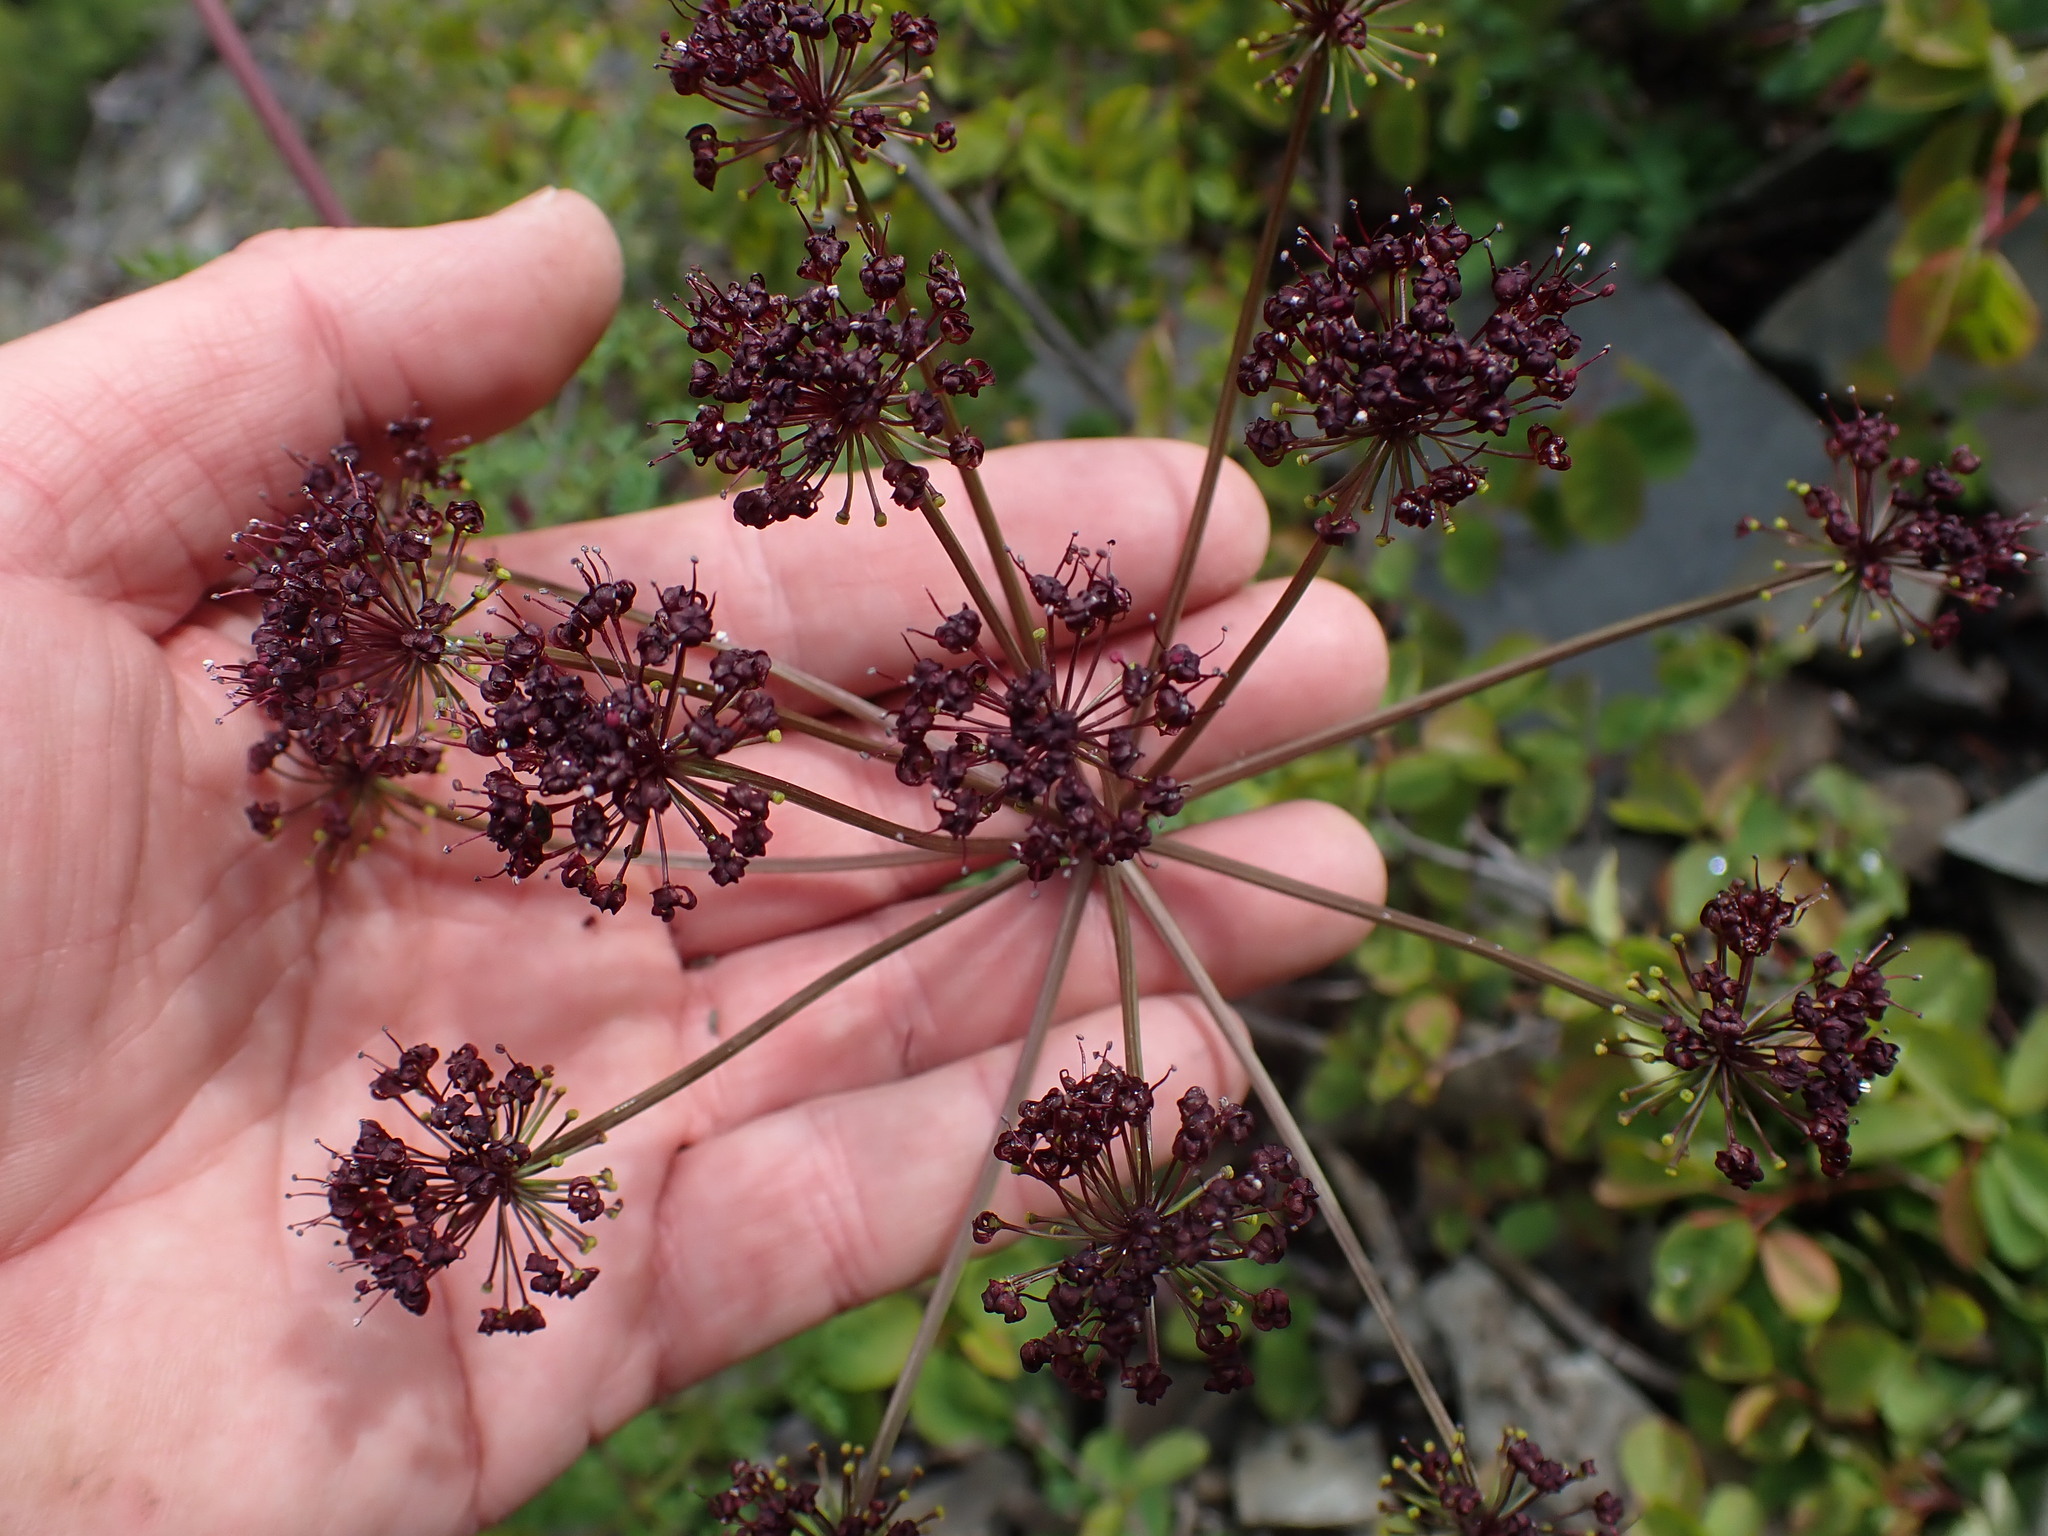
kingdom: Plantae
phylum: Tracheophyta
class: Magnoliopsida
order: Apiales
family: Apiaceae
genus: Lomatium
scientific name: Lomatium multifidum
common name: Carrot-leaved biscuitroot
